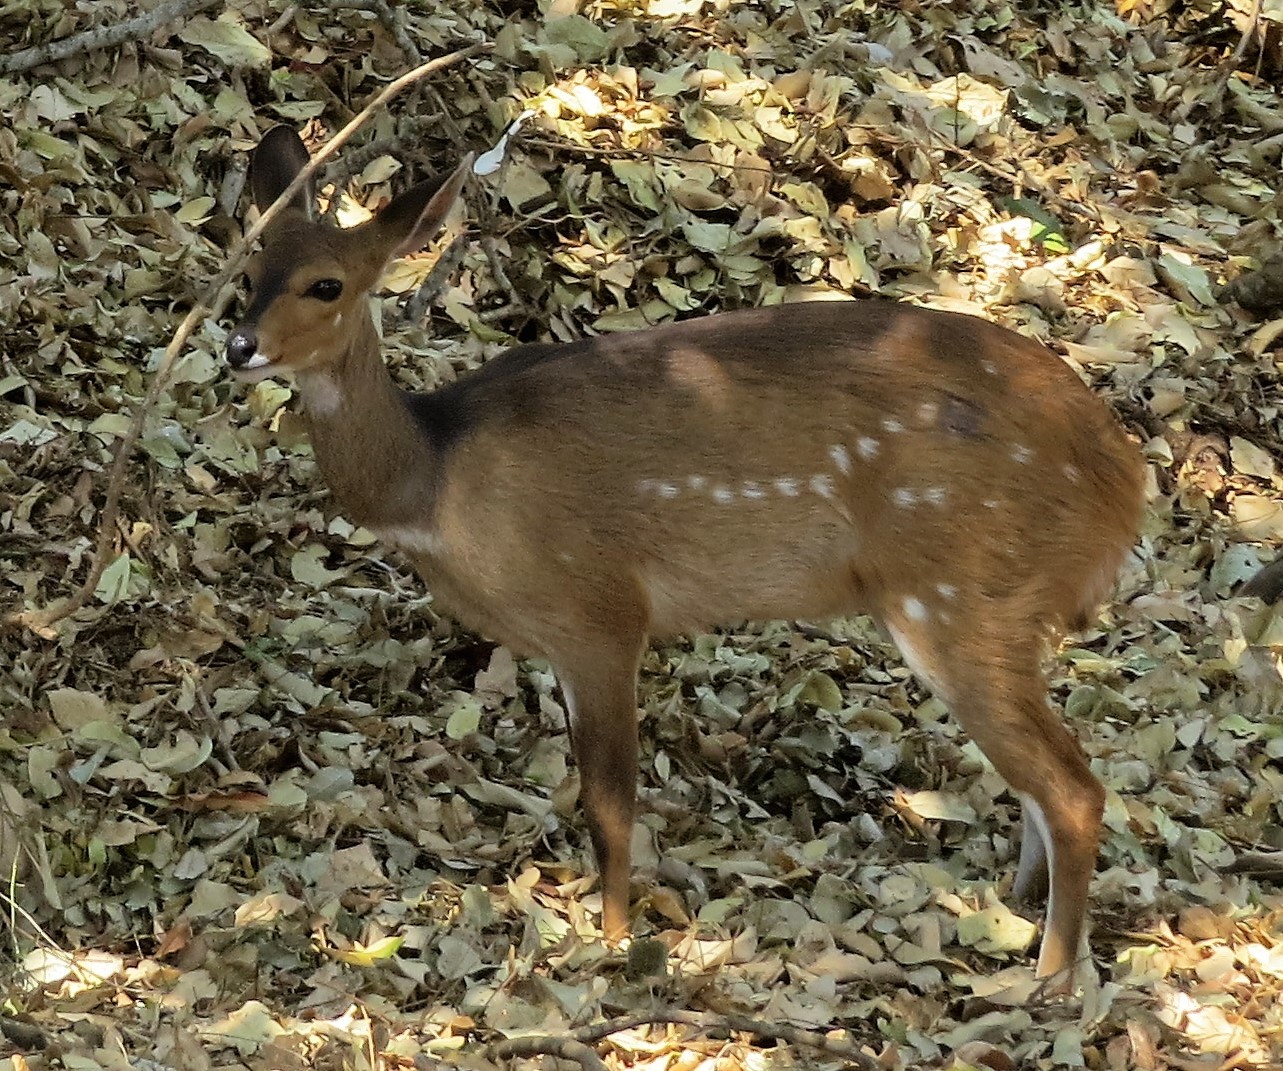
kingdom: Animalia
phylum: Chordata
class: Mammalia
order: Artiodactyla
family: Bovidae
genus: Tragelaphus
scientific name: Tragelaphus scriptus
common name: Bushbuck
